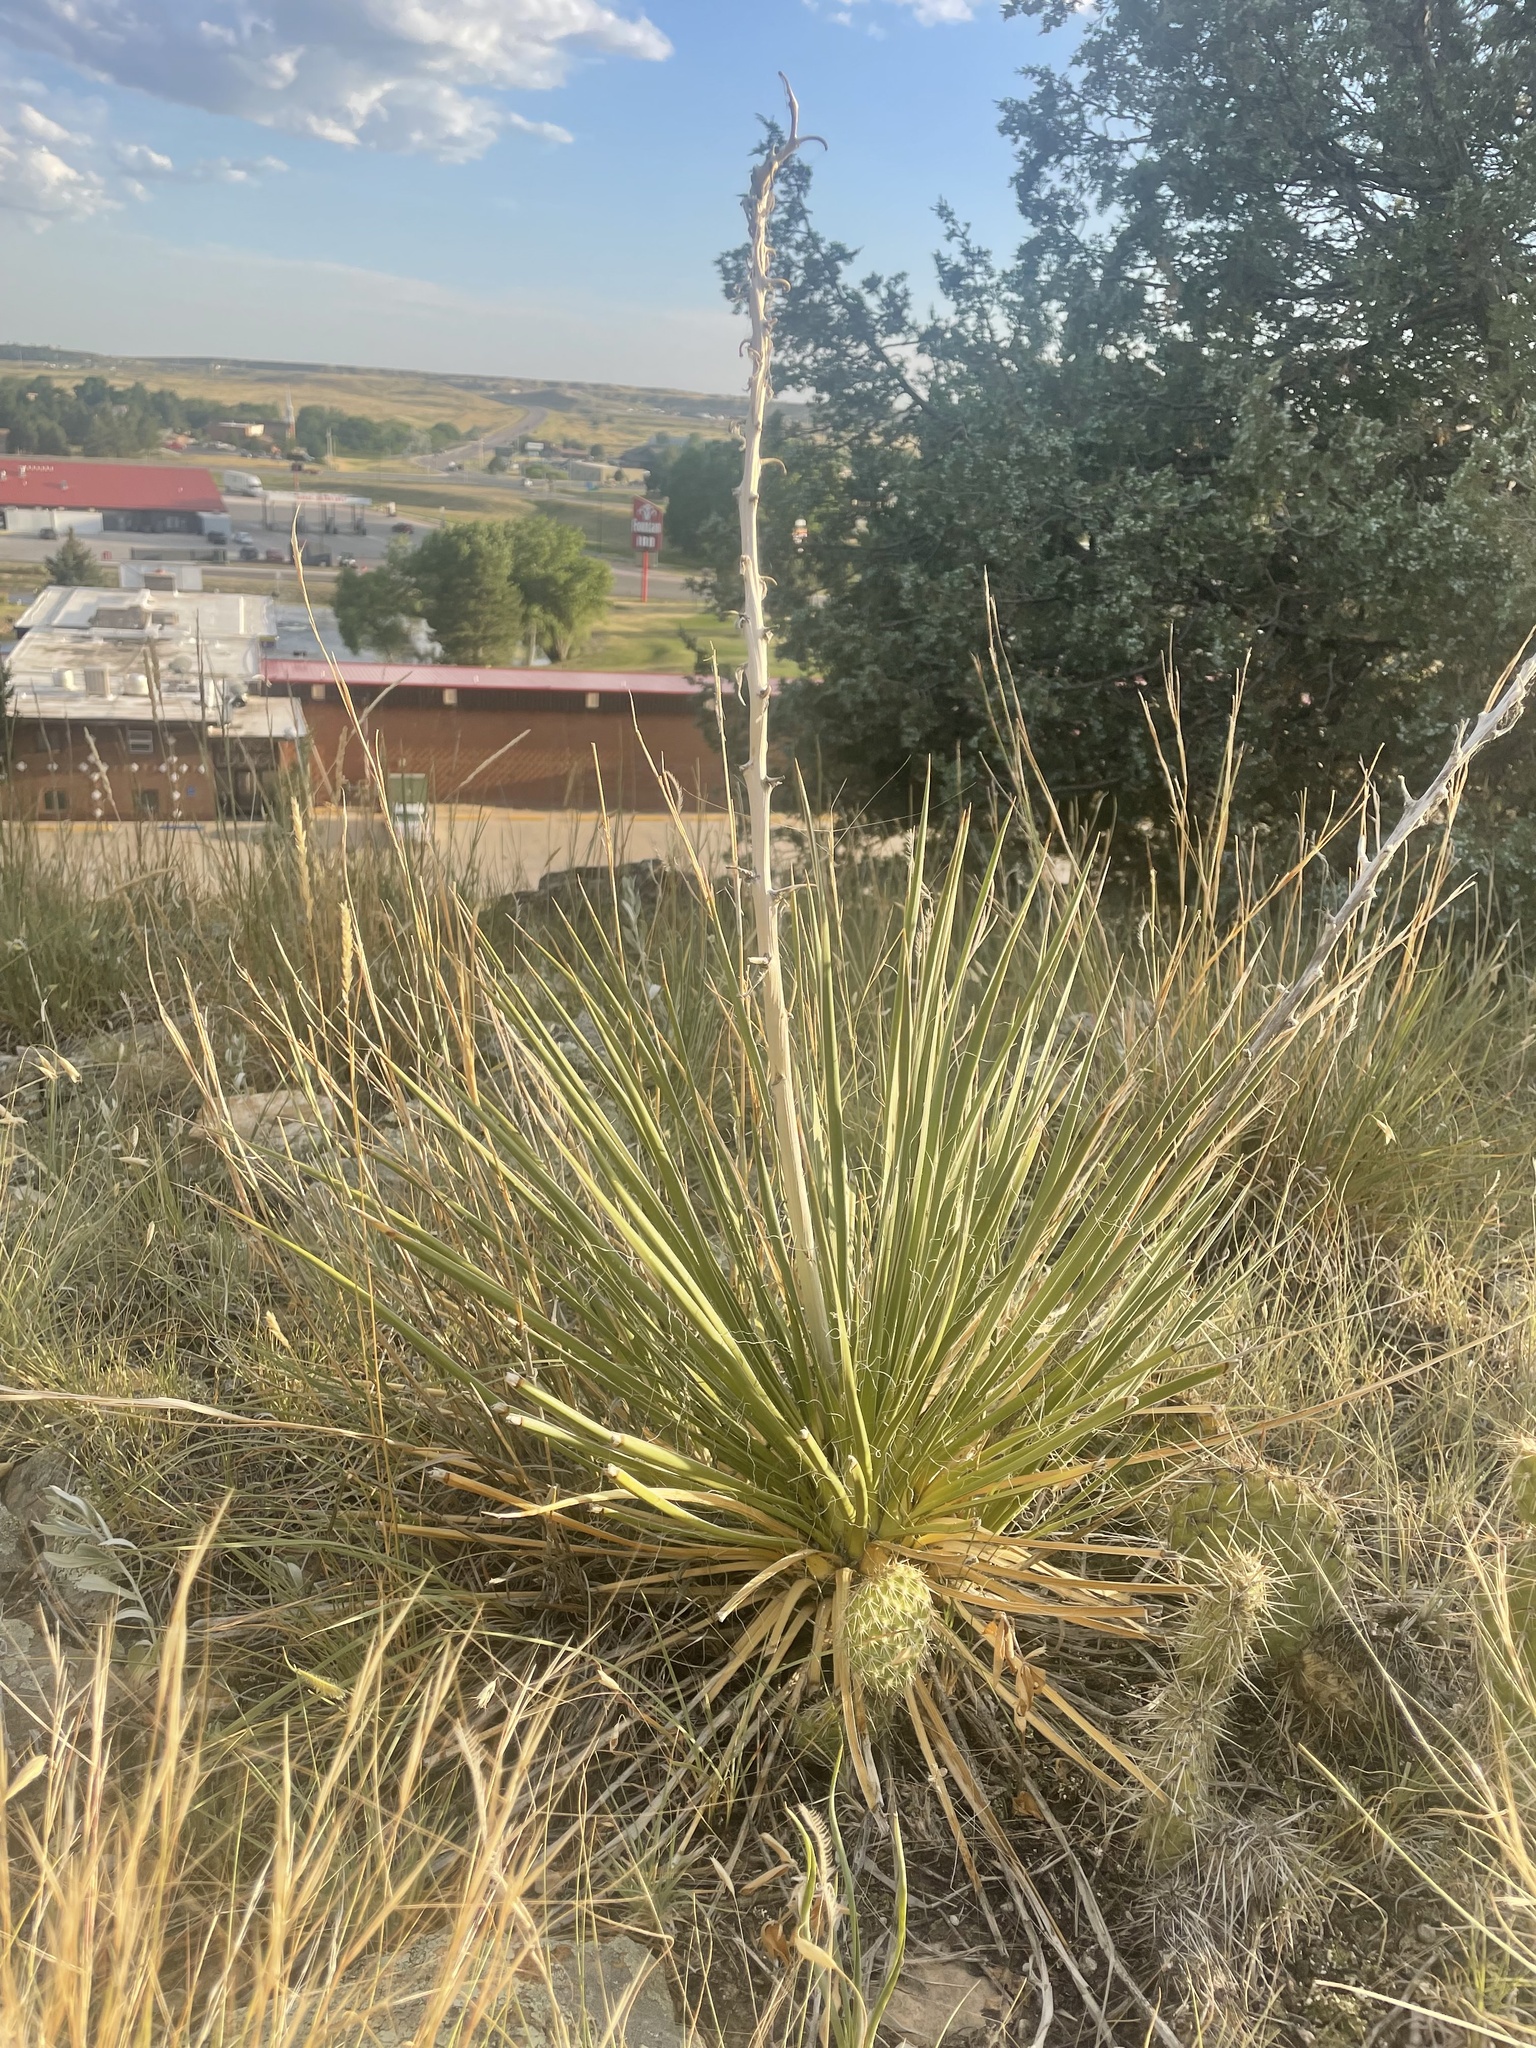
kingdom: Plantae
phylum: Tracheophyta
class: Liliopsida
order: Asparagales
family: Asparagaceae
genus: Yucca
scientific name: Yucca glauca
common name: Great plains yucca
